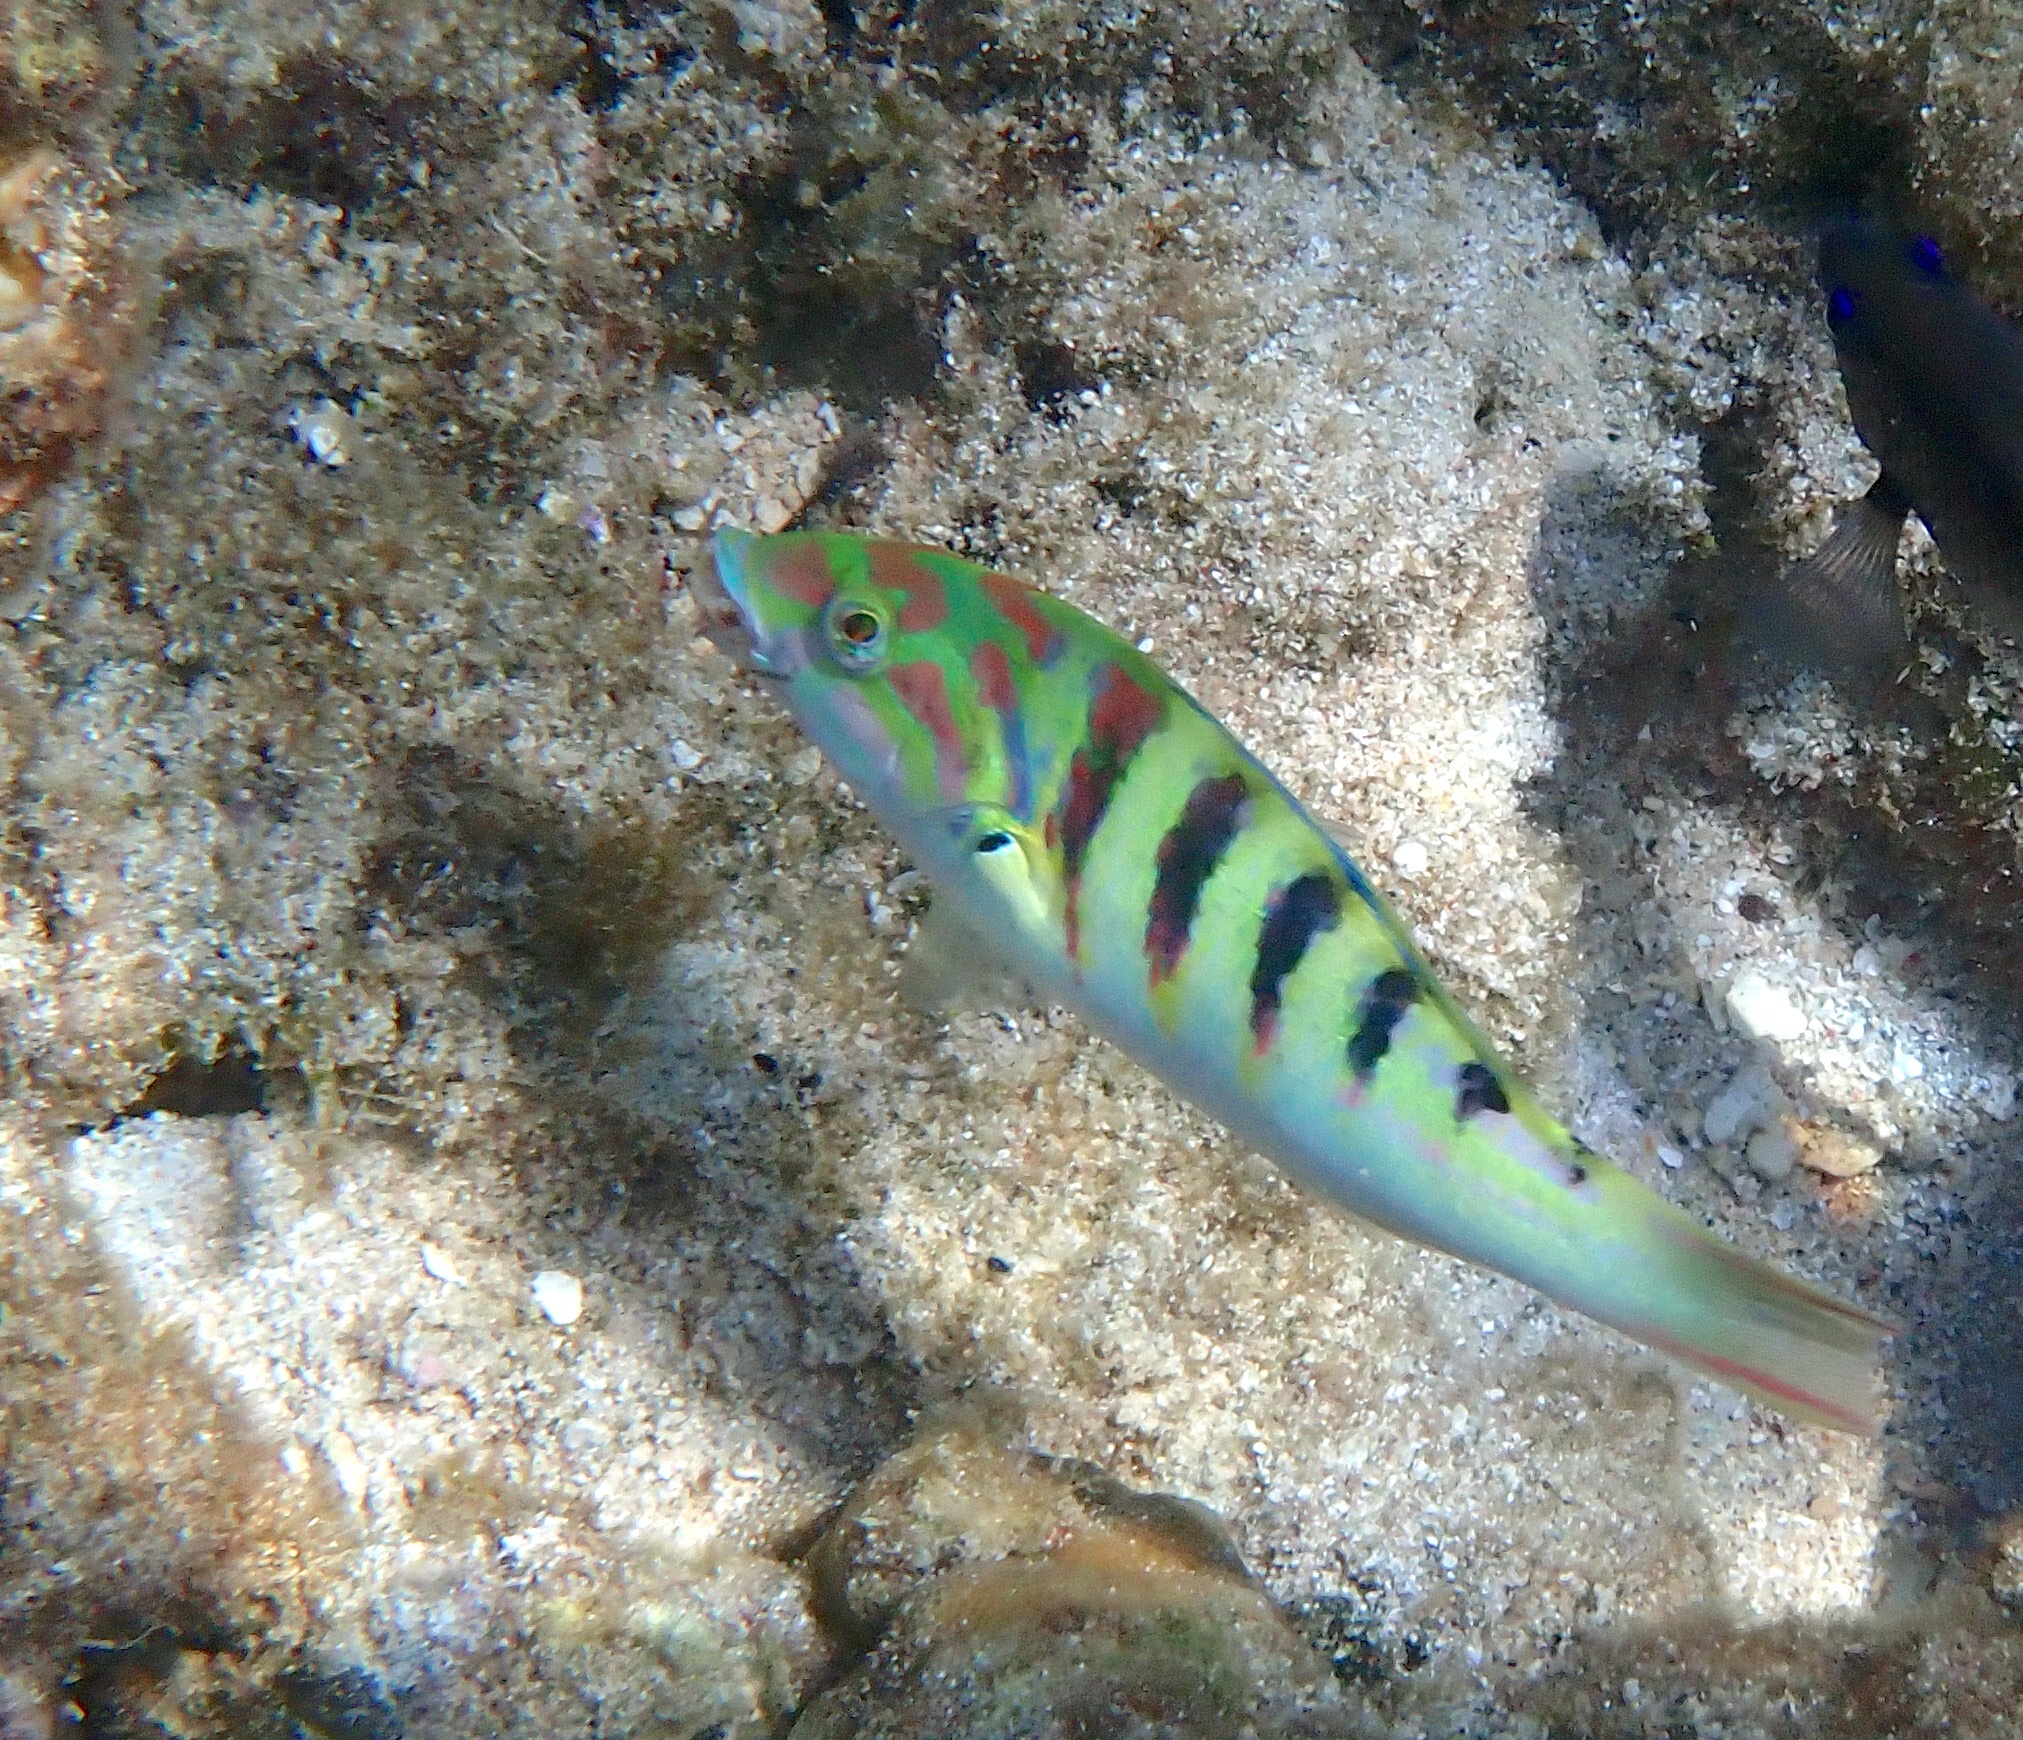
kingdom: Animalia
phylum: Chordata
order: Perciformes
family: Labridae
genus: Thalassoma
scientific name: Thalassoma hardwicke
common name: Sixbar wrasse
